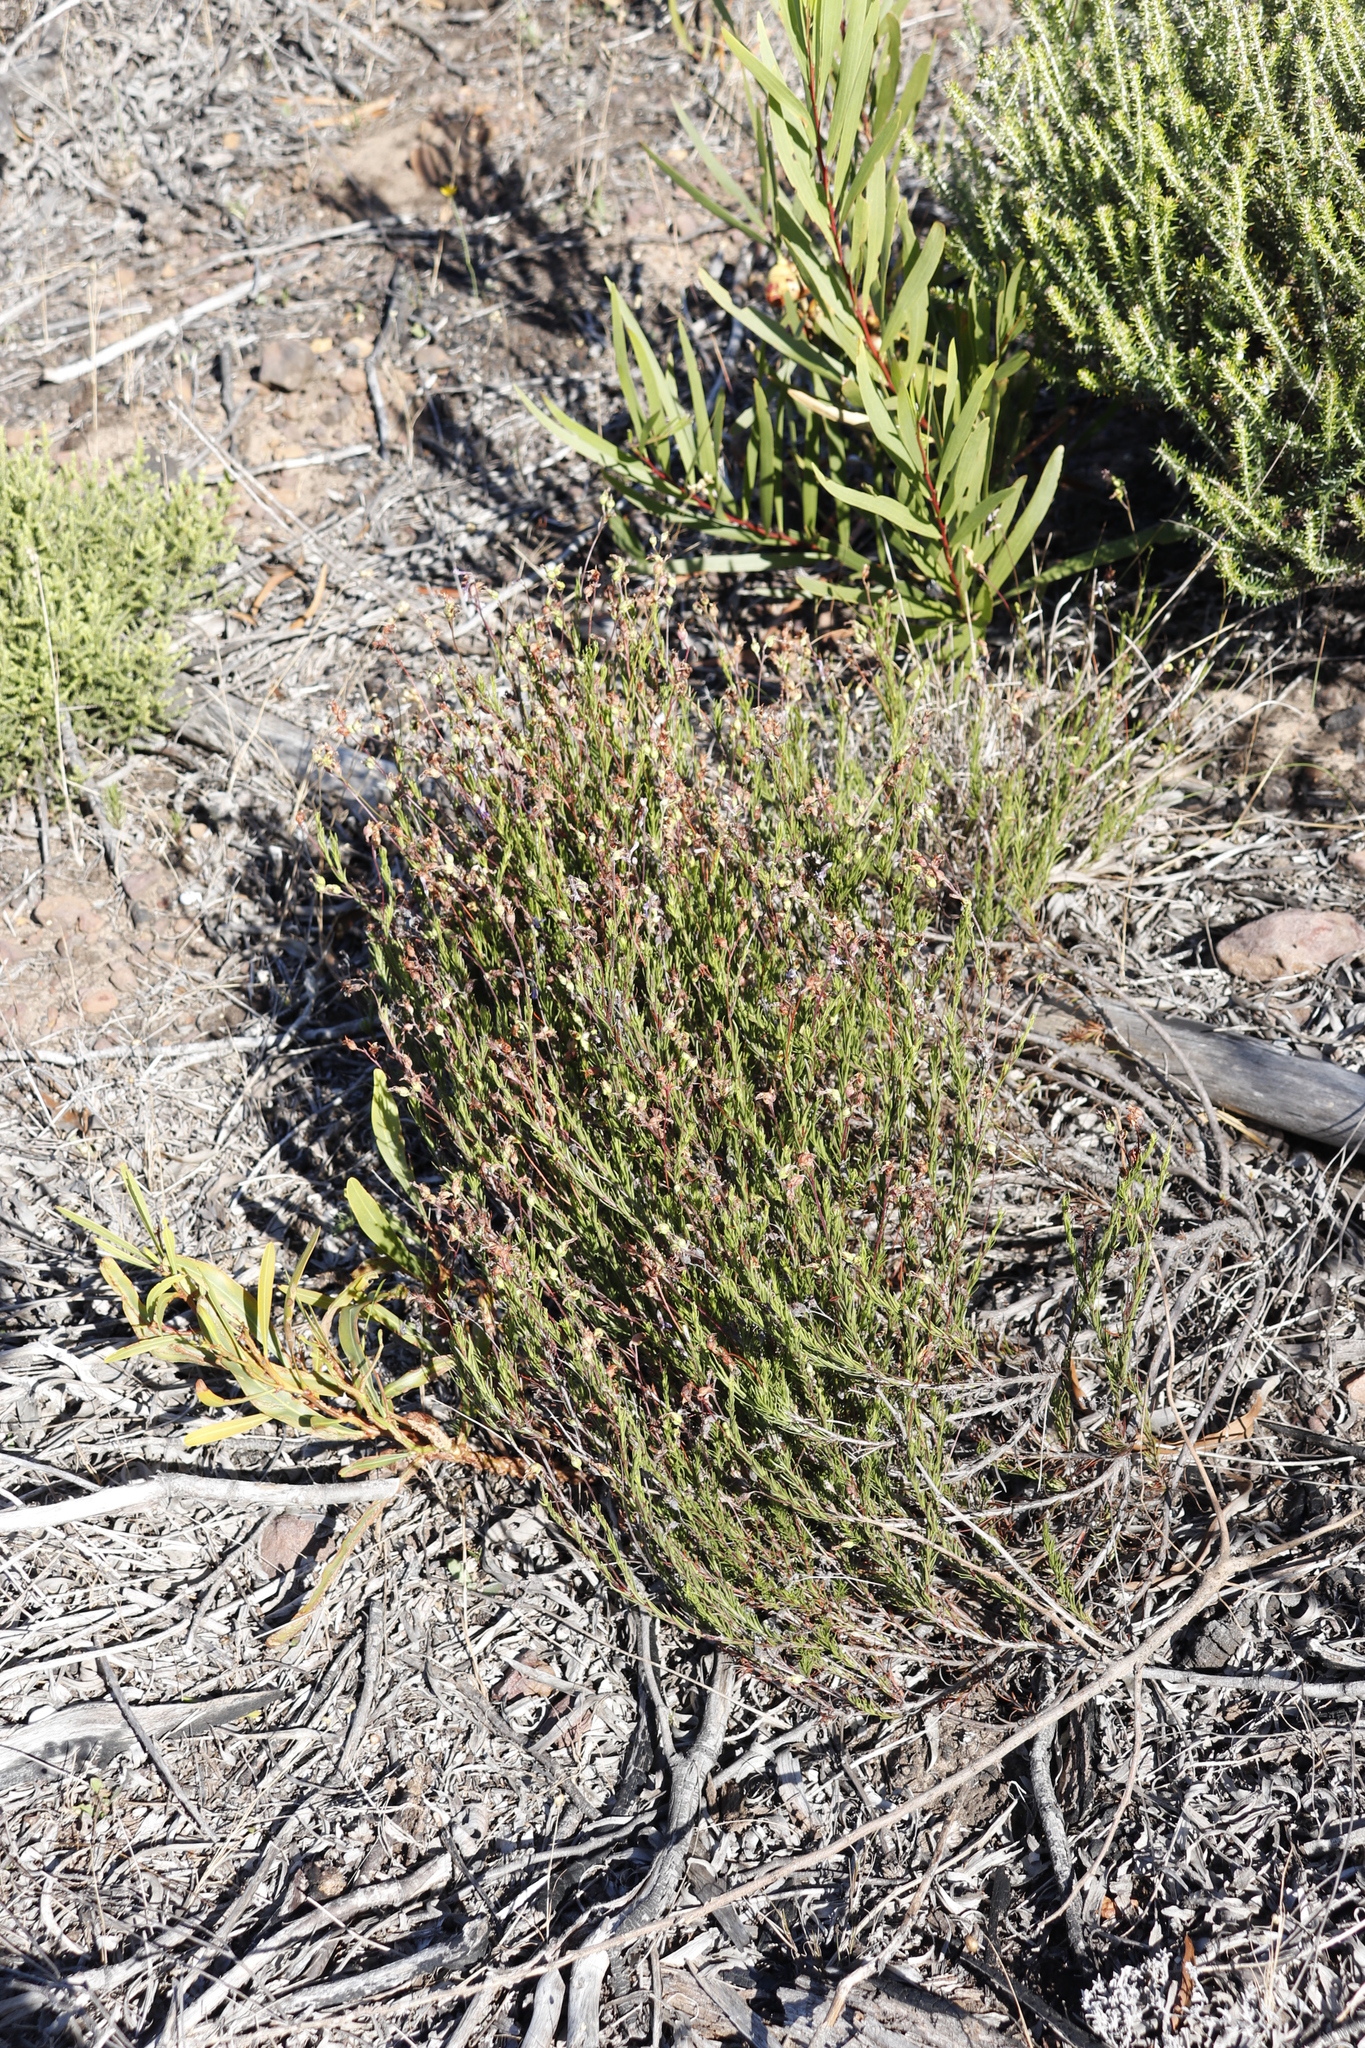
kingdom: Plantae
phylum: Tracheophyta
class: Magnoliopsida
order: Asterales
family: Campanulaceae
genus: Lobelia
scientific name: Lobelia pinifolia
